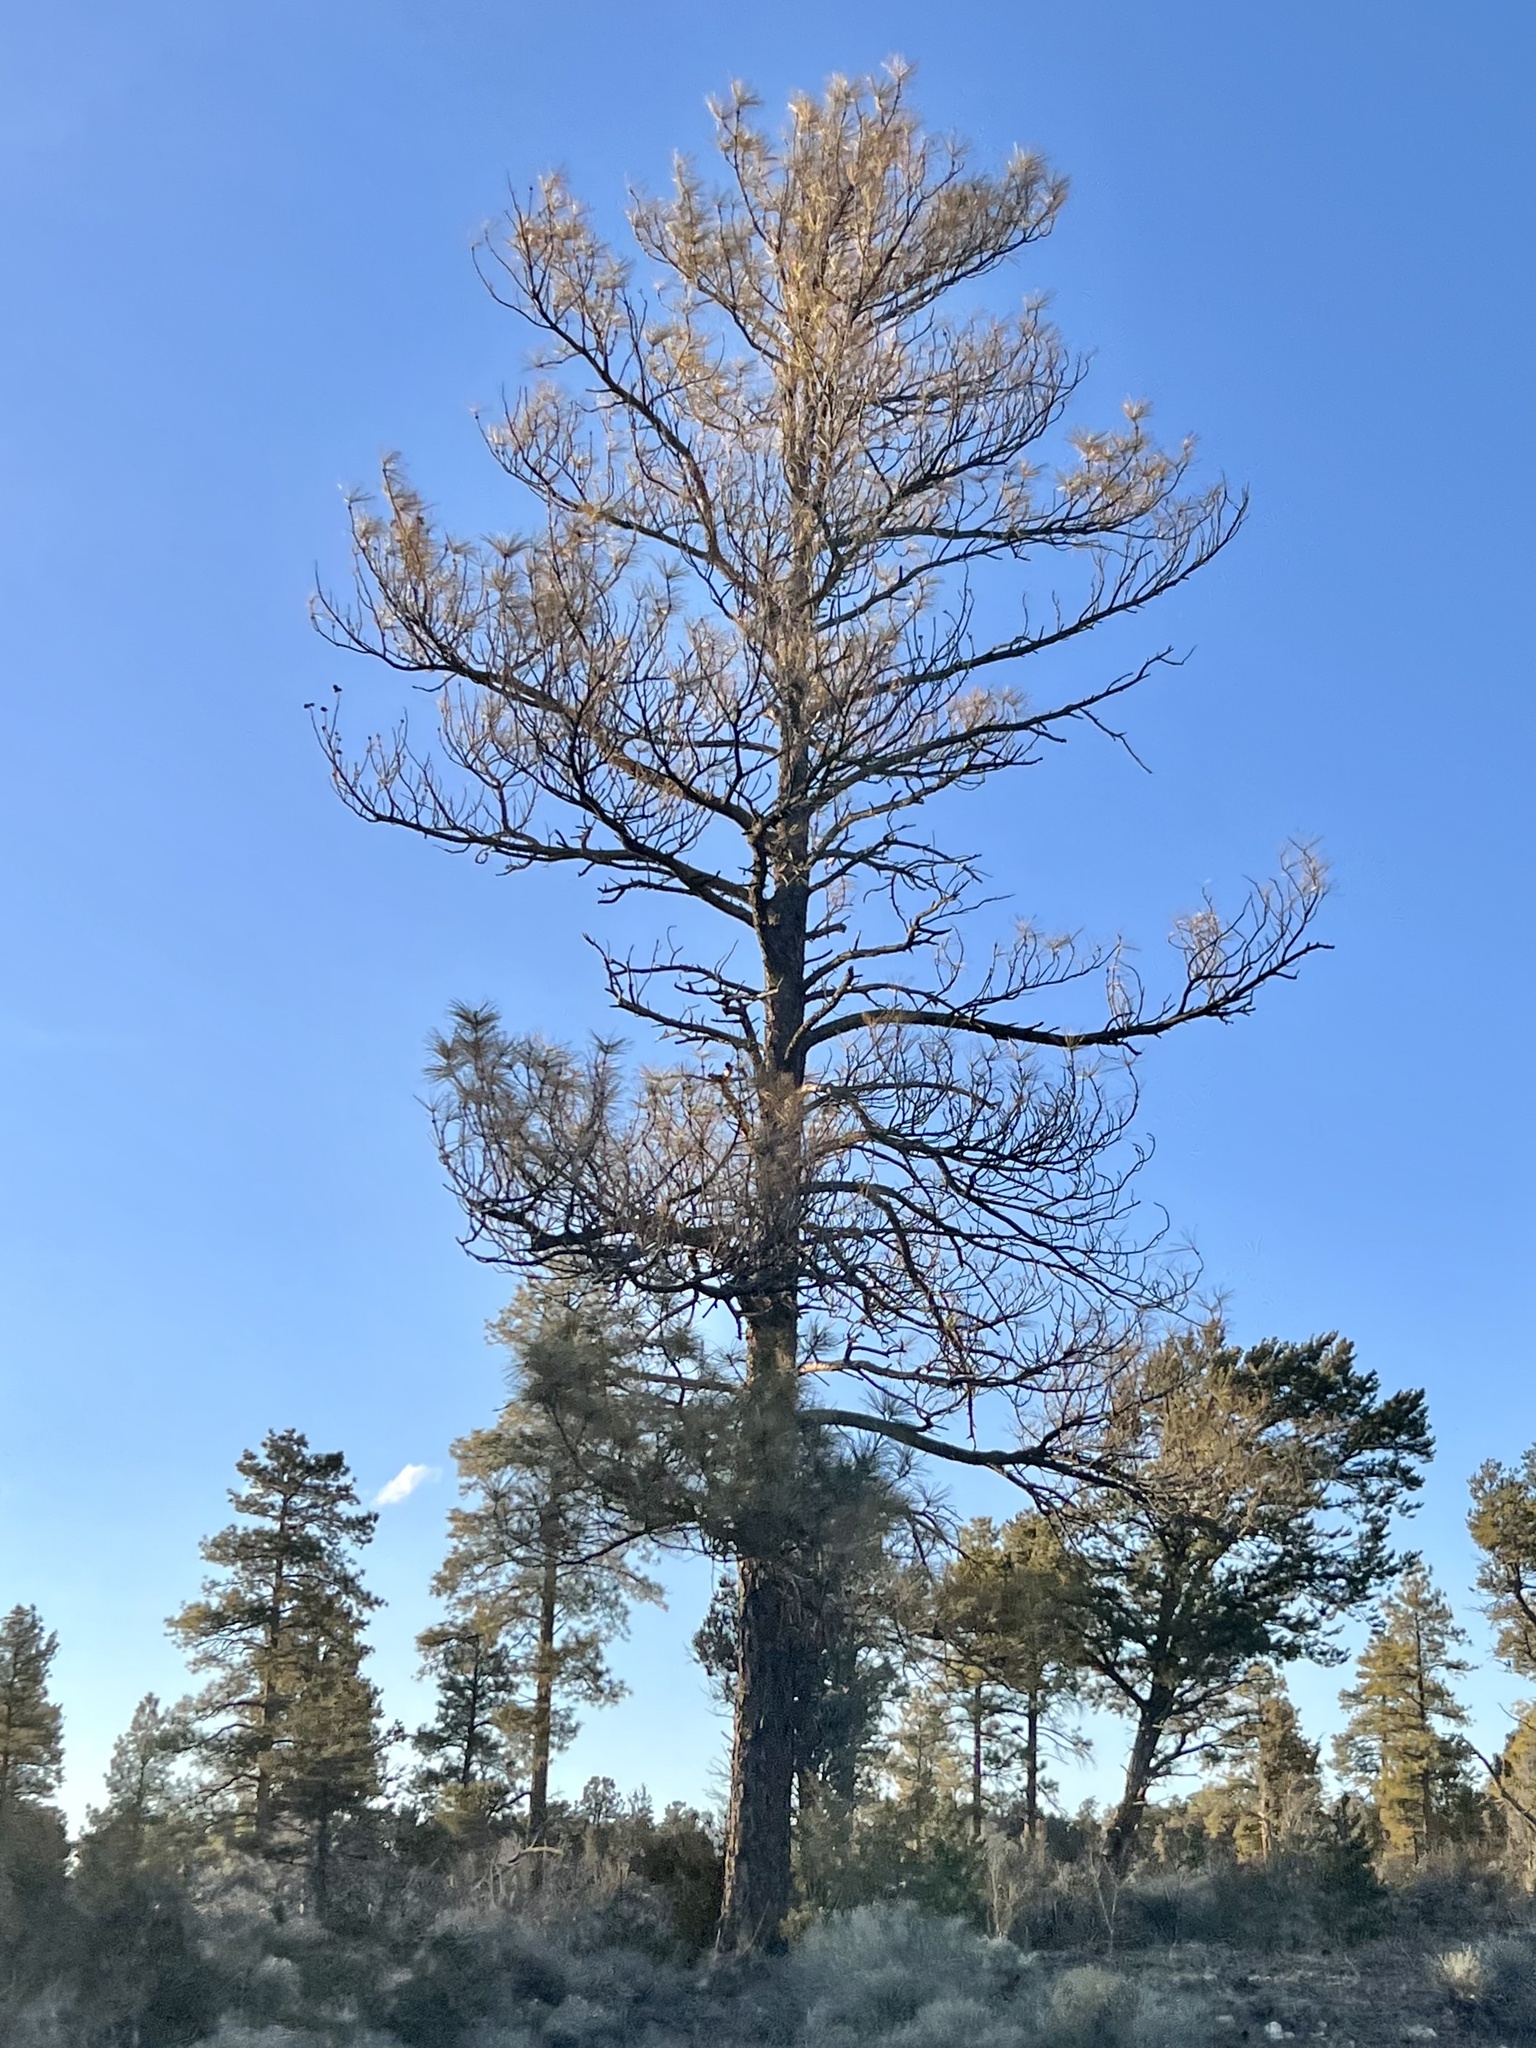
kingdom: Plantae
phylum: Tracheophyta
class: Pinopsida
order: Pinales
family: Pinaceae
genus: Pinus
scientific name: Pinus ponderosa
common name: Western yellow-pine
